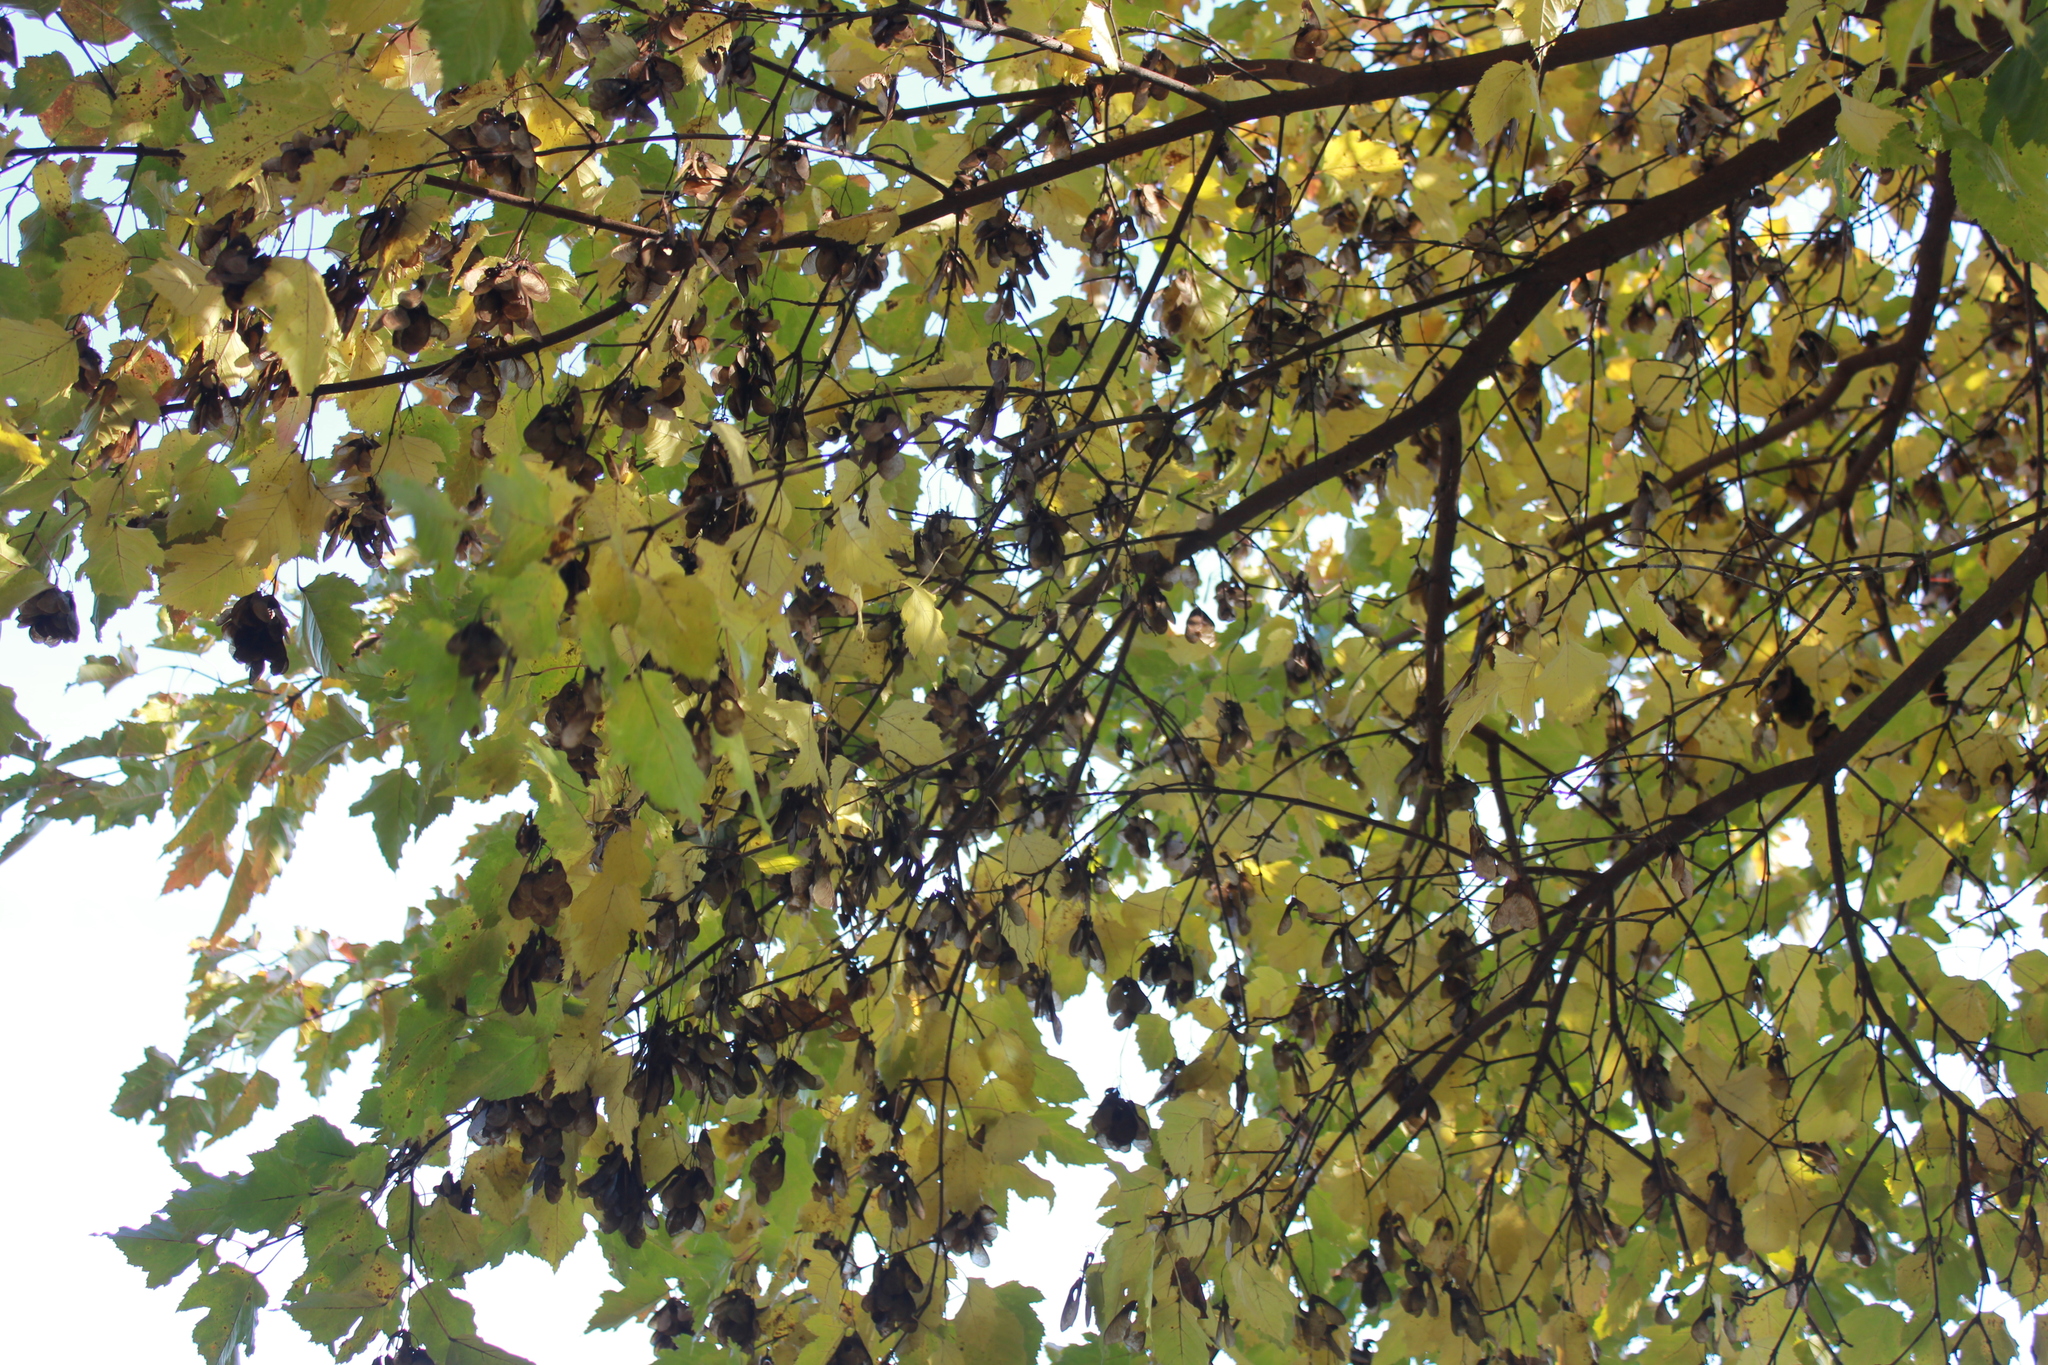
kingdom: Plantae
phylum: Tracheophyta
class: Magnoliopsida
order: Sapindales
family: Sapindaceae
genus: Acer
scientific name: Acer tataricum
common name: Tartar maple
